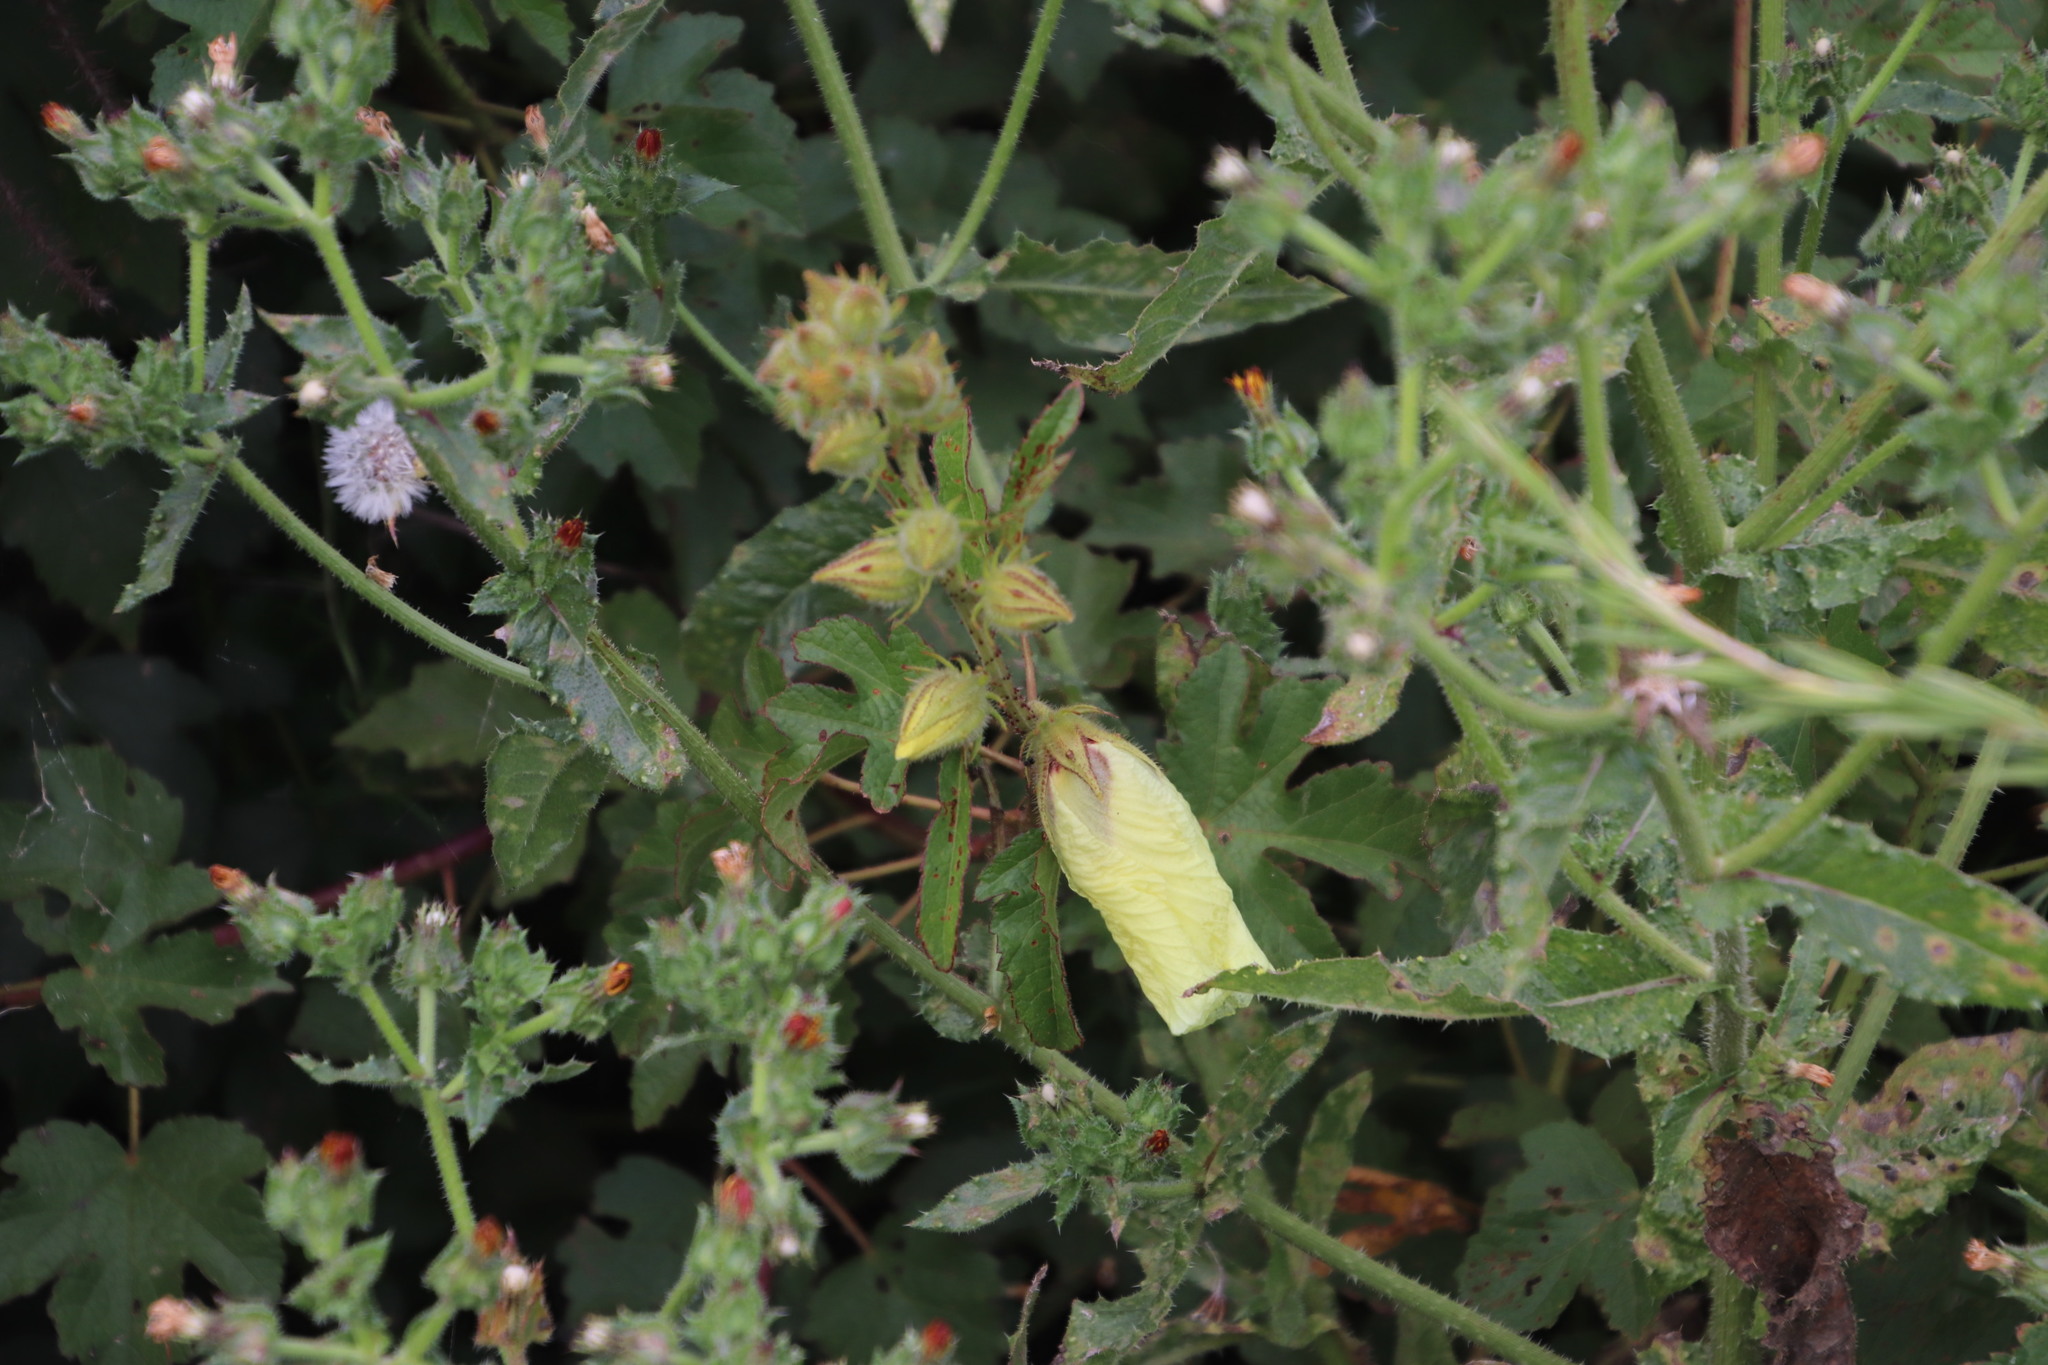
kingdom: Plantae
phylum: Tracheophyta
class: Magnoliopsida
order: Malvales
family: Malvaceae
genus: Hibiscus
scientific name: Hibiscus diversifolius
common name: Cape hibiscus
